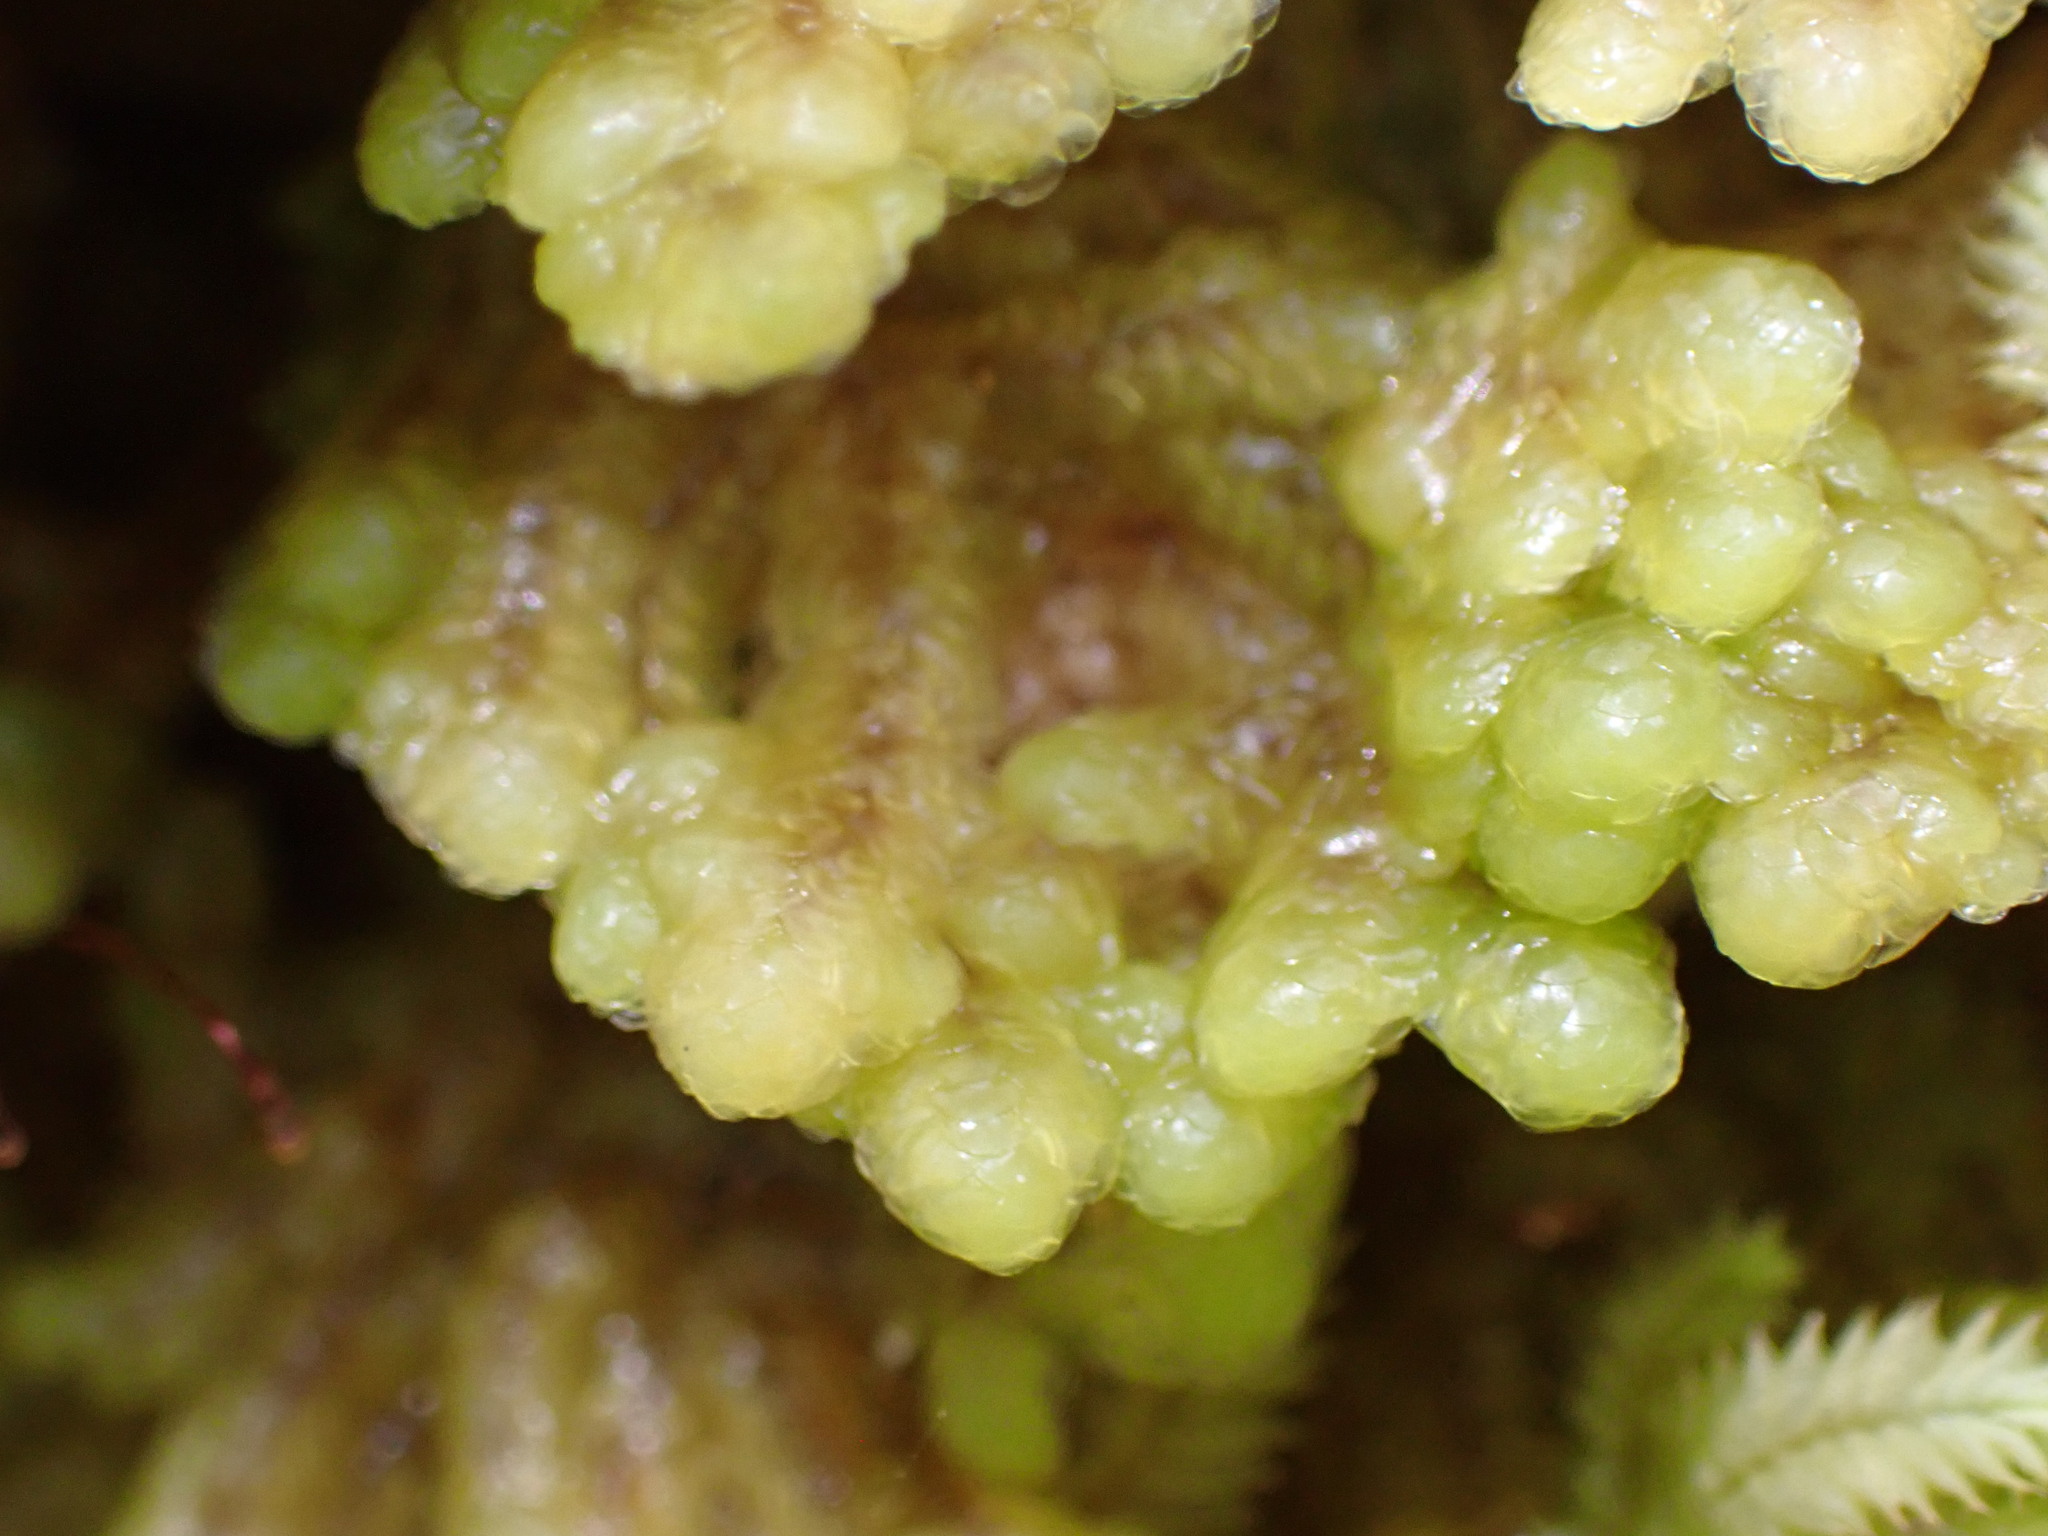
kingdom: Plantae
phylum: Bryophyta
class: Bryopsida
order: Hookeriales
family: Daltoniaceae
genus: Distichophyllum
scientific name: Distichophyllum pulchellum
